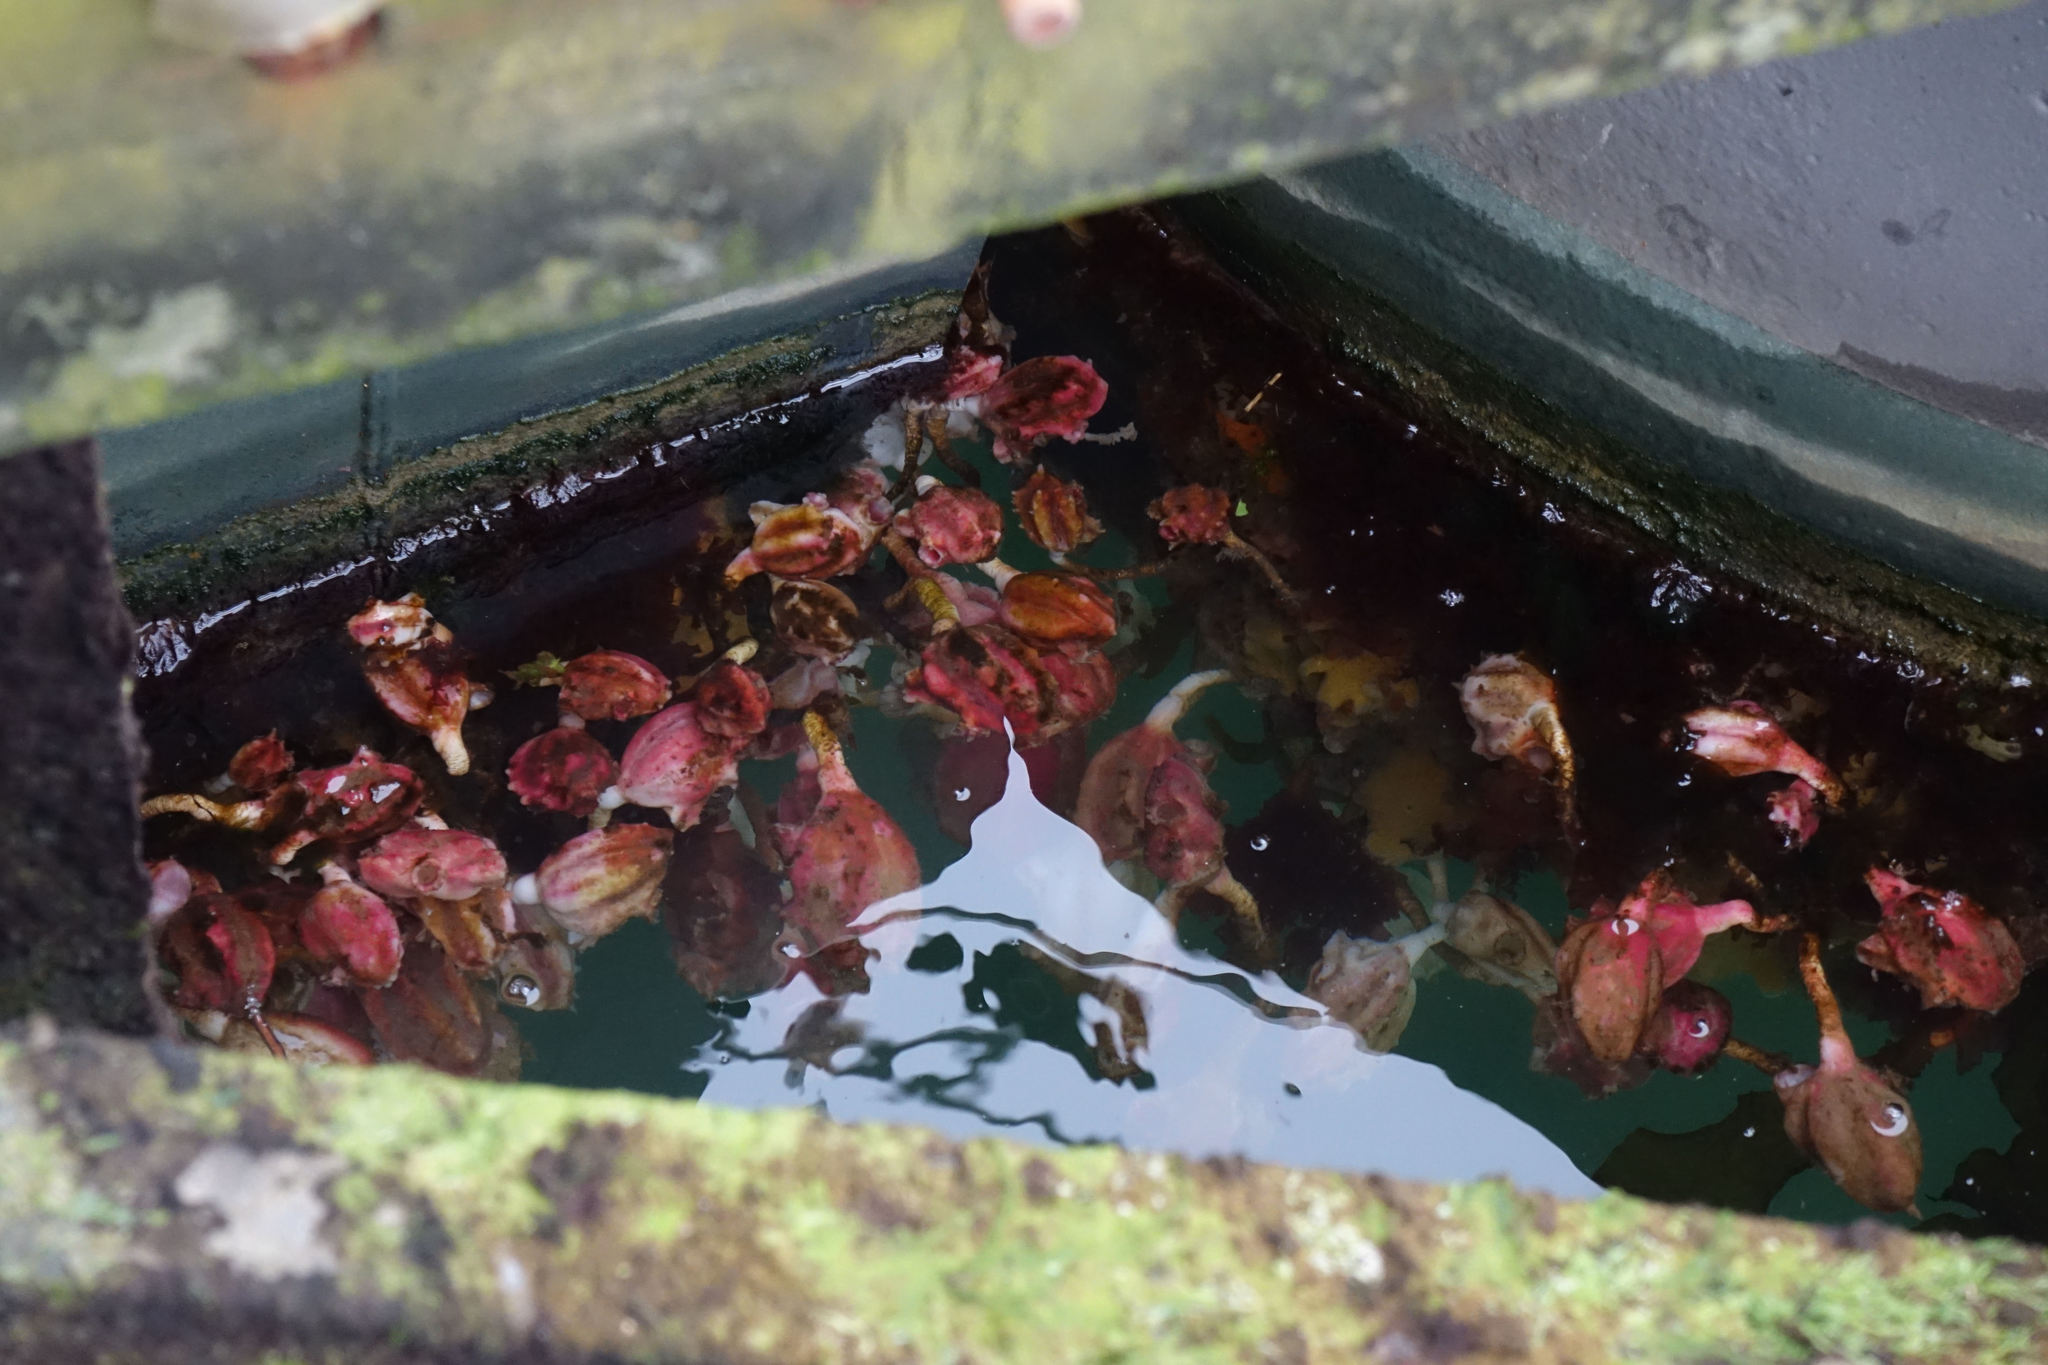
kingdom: Animalia
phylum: Chordata
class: Ascidiacea
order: Stolidobranchia
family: Pyuridae
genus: Pyura
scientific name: Pyura pachydermatina
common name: Sea tulip
